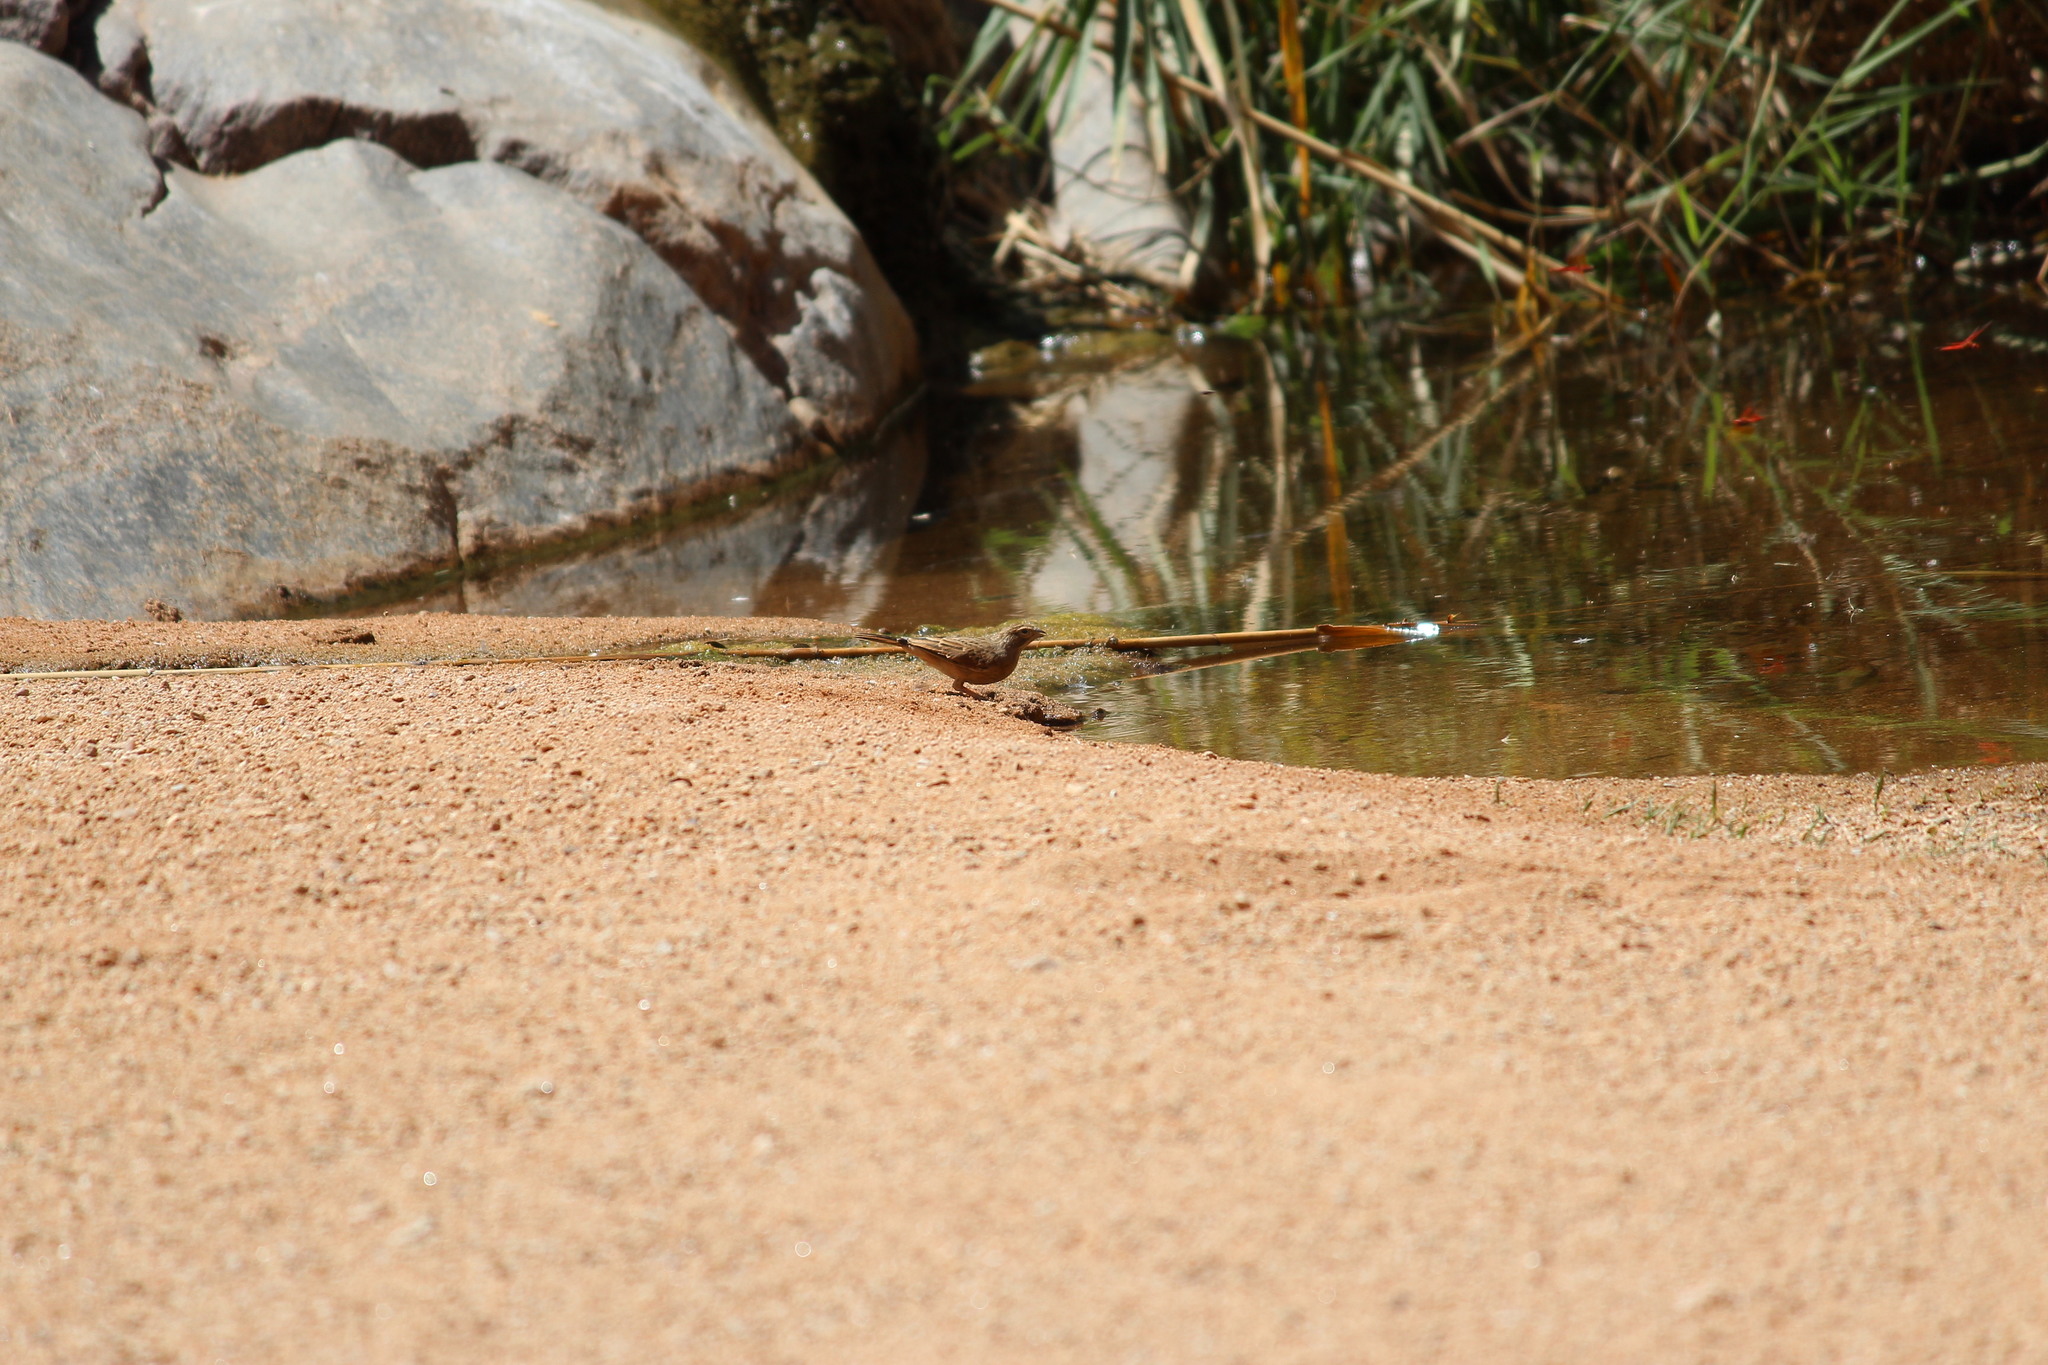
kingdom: Animalia
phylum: Chordata
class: Aves
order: Passeriformes
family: Emberizidae
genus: Emberiza
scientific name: Emberiza impetuani
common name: Lark-like bunting
